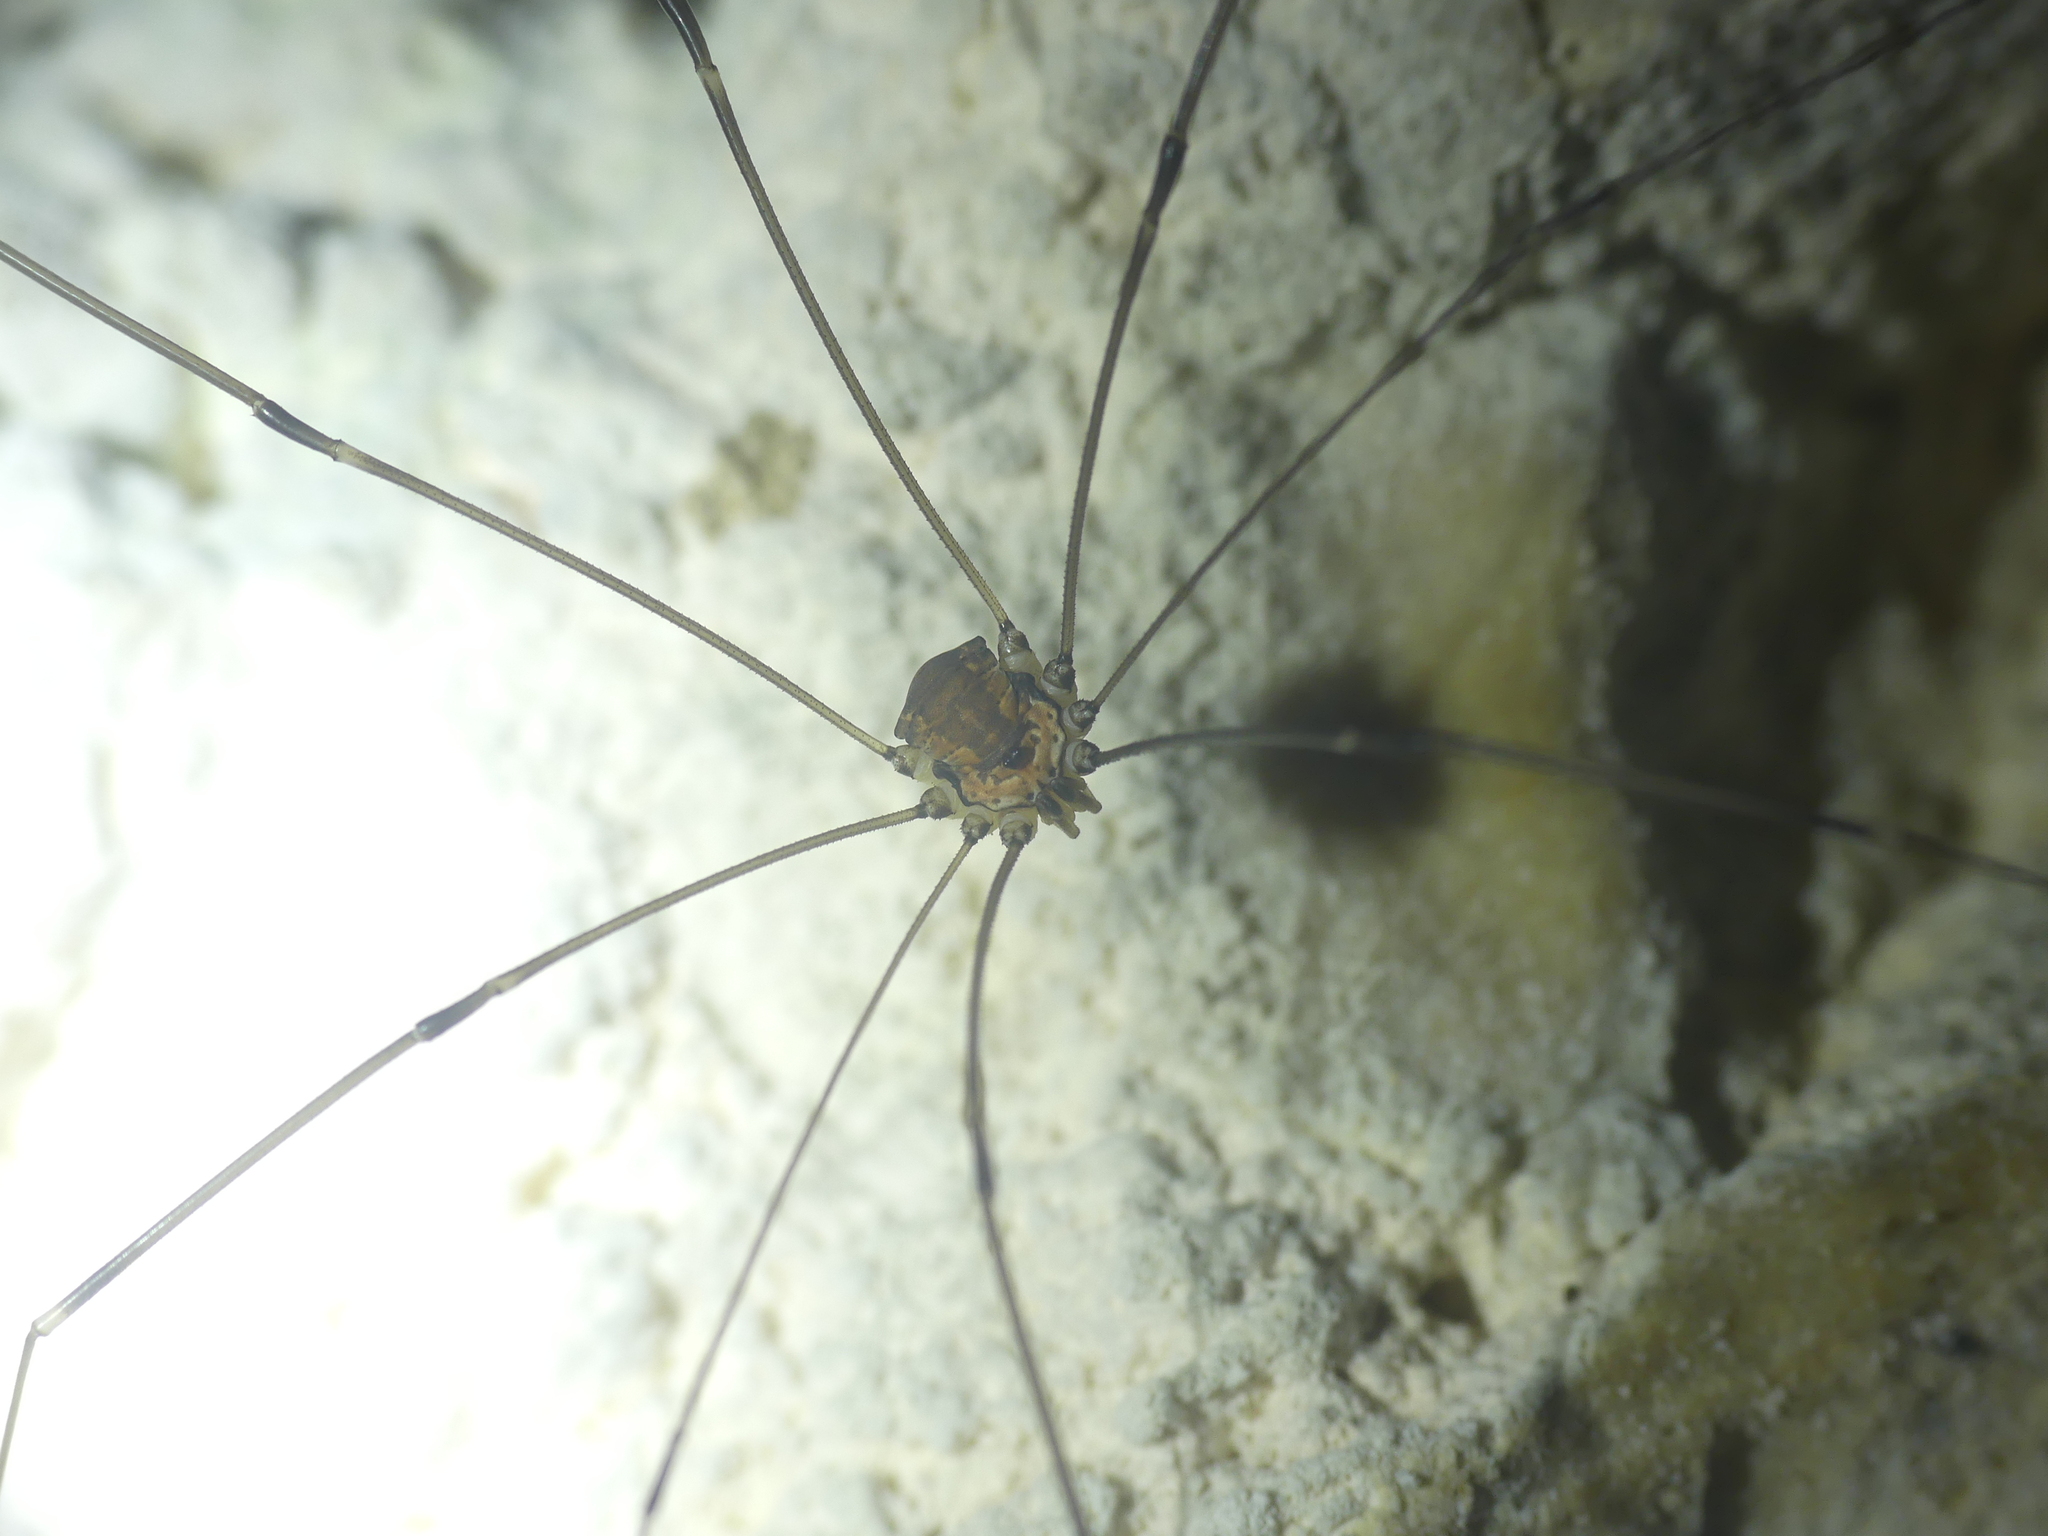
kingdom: Animalia
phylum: Arthropoda
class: Arachnida
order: Opiliones
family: Sclerosomatidae
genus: Leiobunum
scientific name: Leiobunum limbatum
